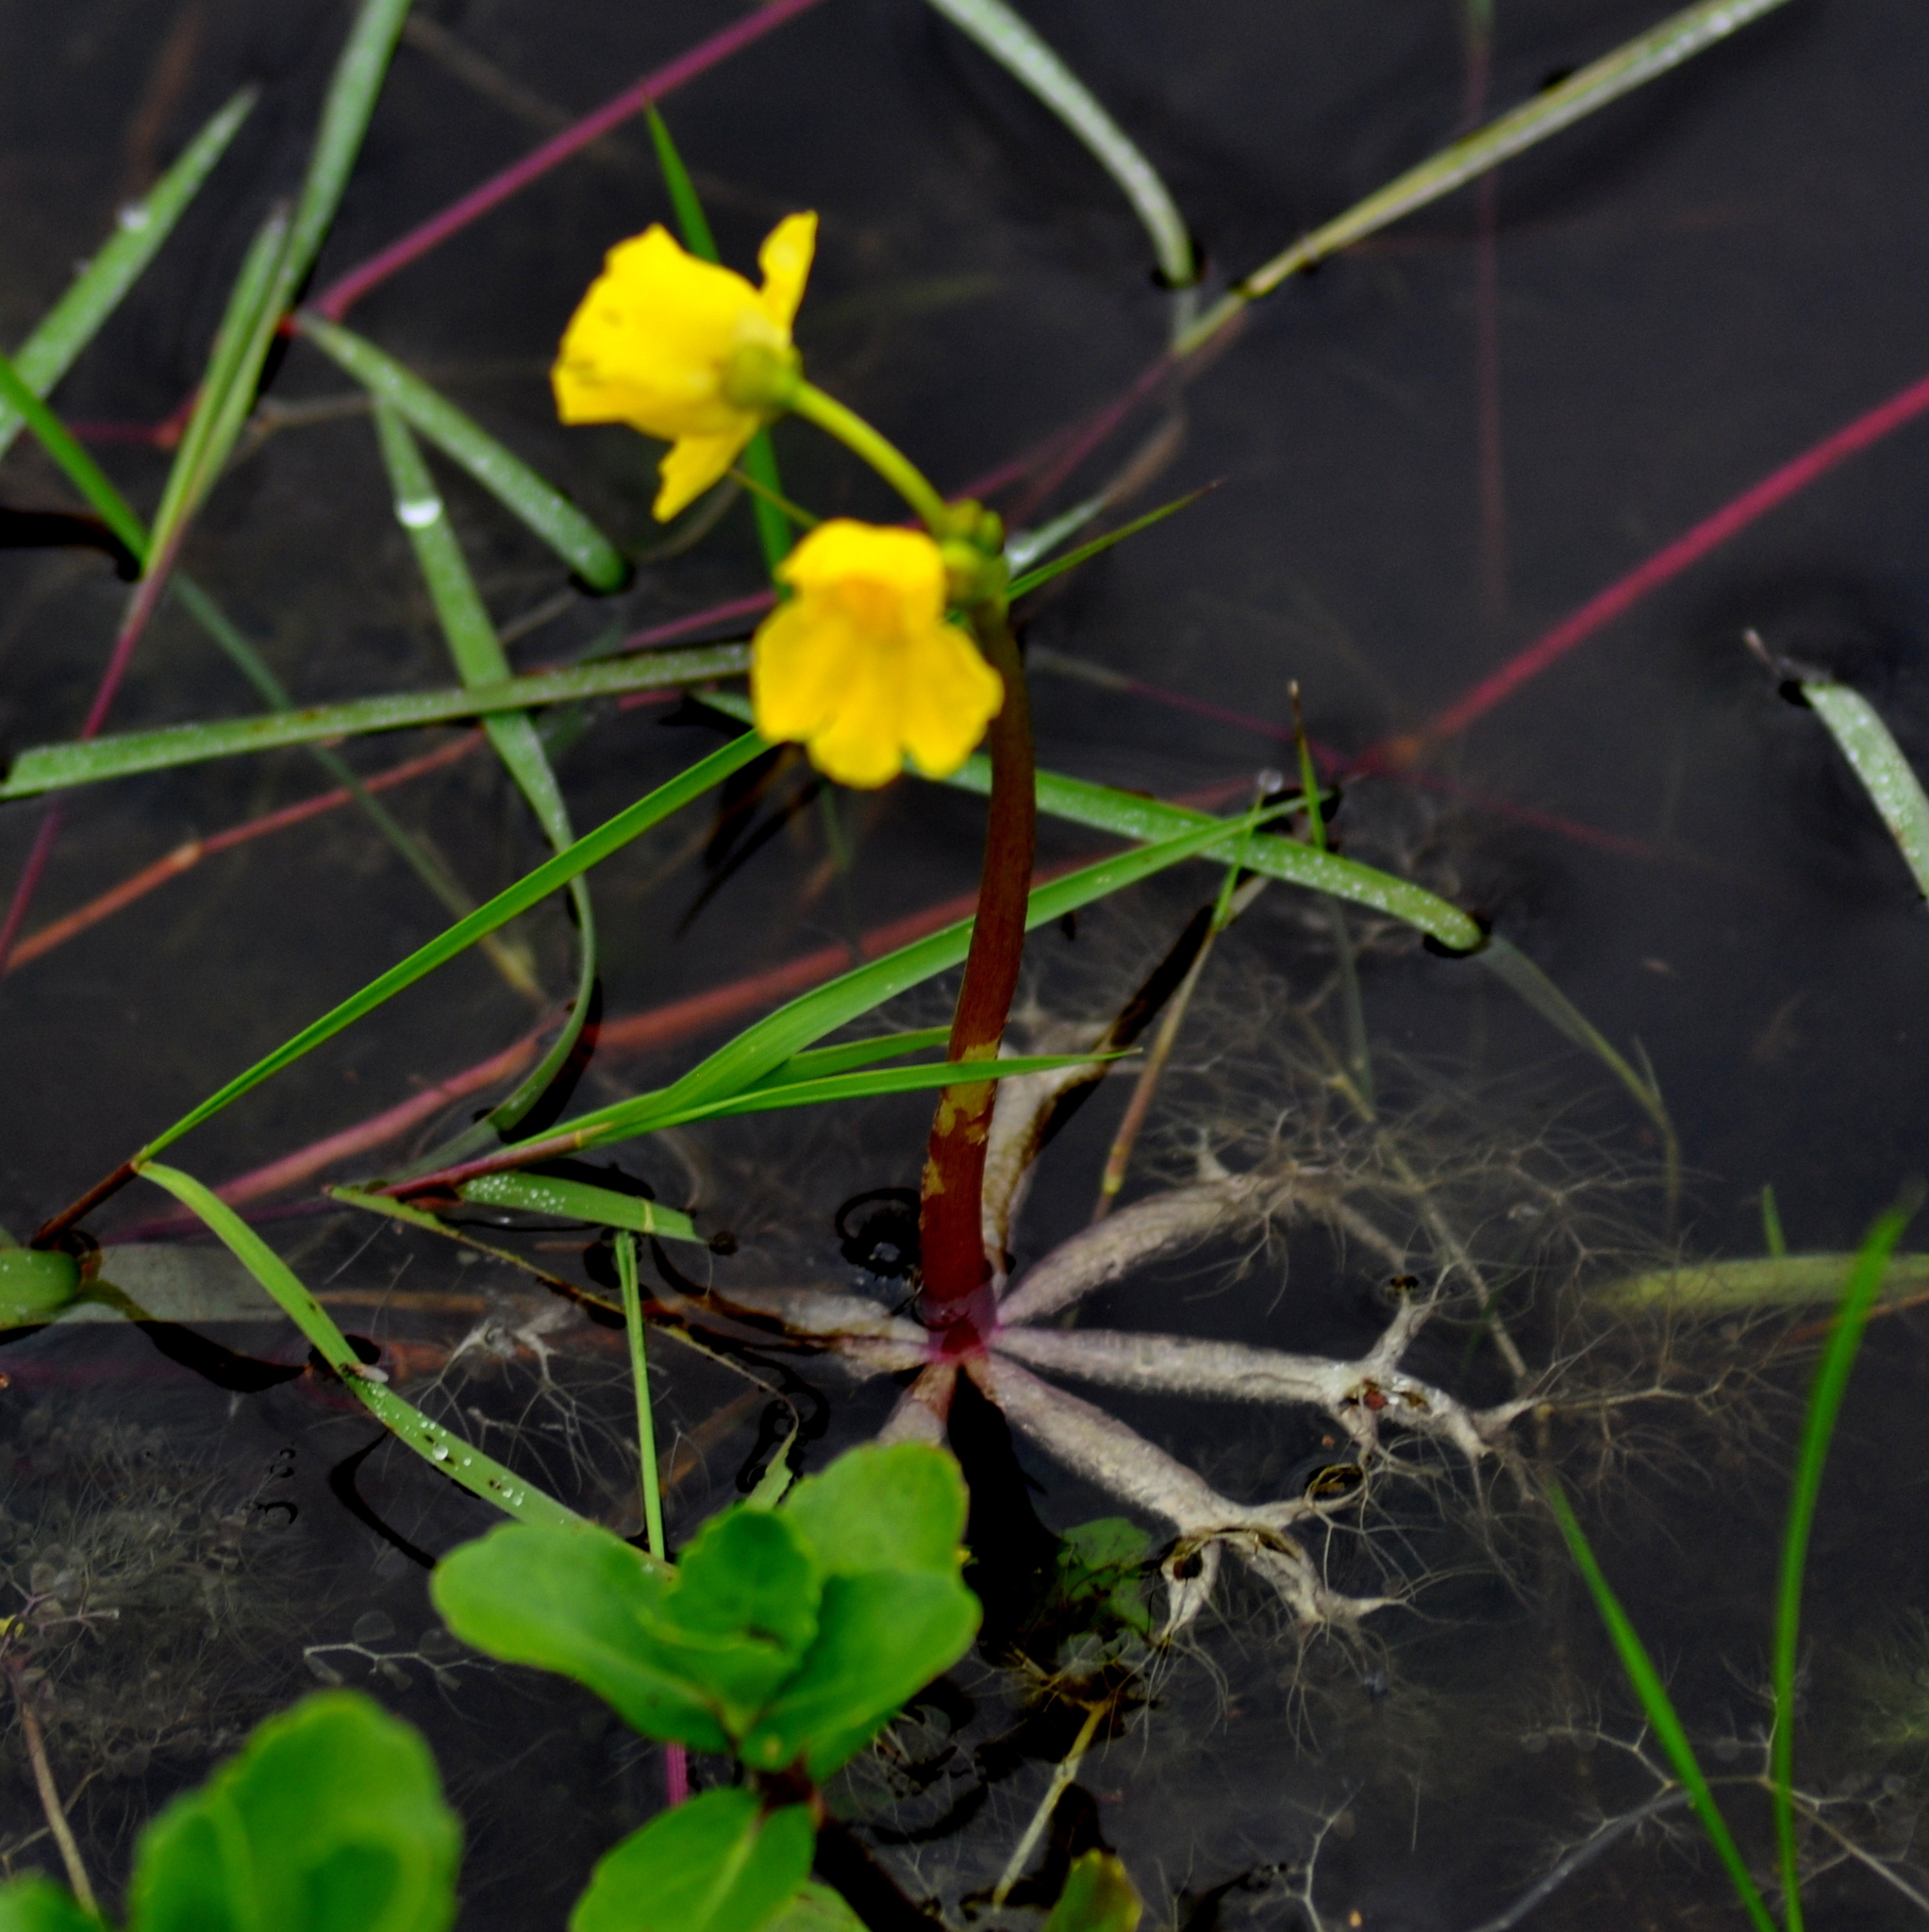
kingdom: Plantae
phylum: Tracheophyta
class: Magnoliopsida
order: Lamiales
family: Lentibulariaceae
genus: Utricularia
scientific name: Utricularia breviscapa
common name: Bladderwort
